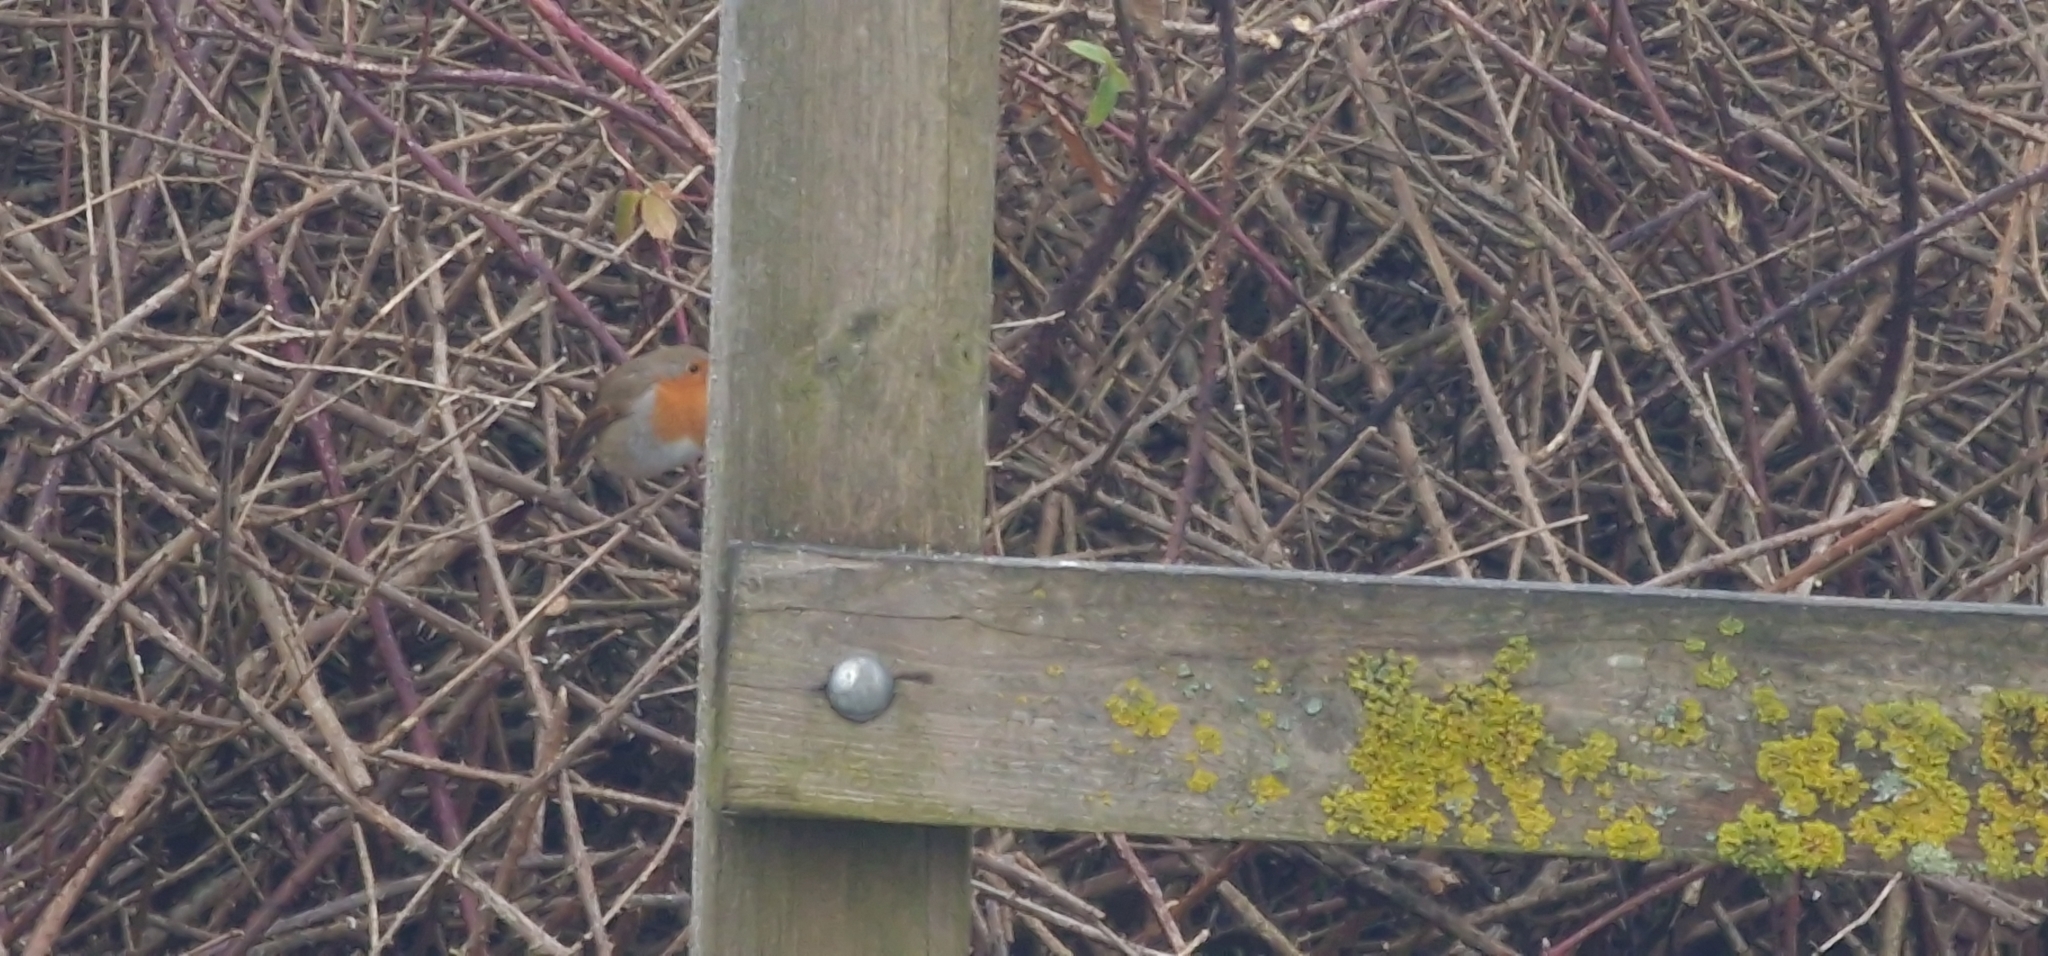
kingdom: Animalia
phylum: Chordata
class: Aves
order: Passeriformes
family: Muscicapidae
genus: Erithacus
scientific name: Erithacus rubecula
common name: European robin
